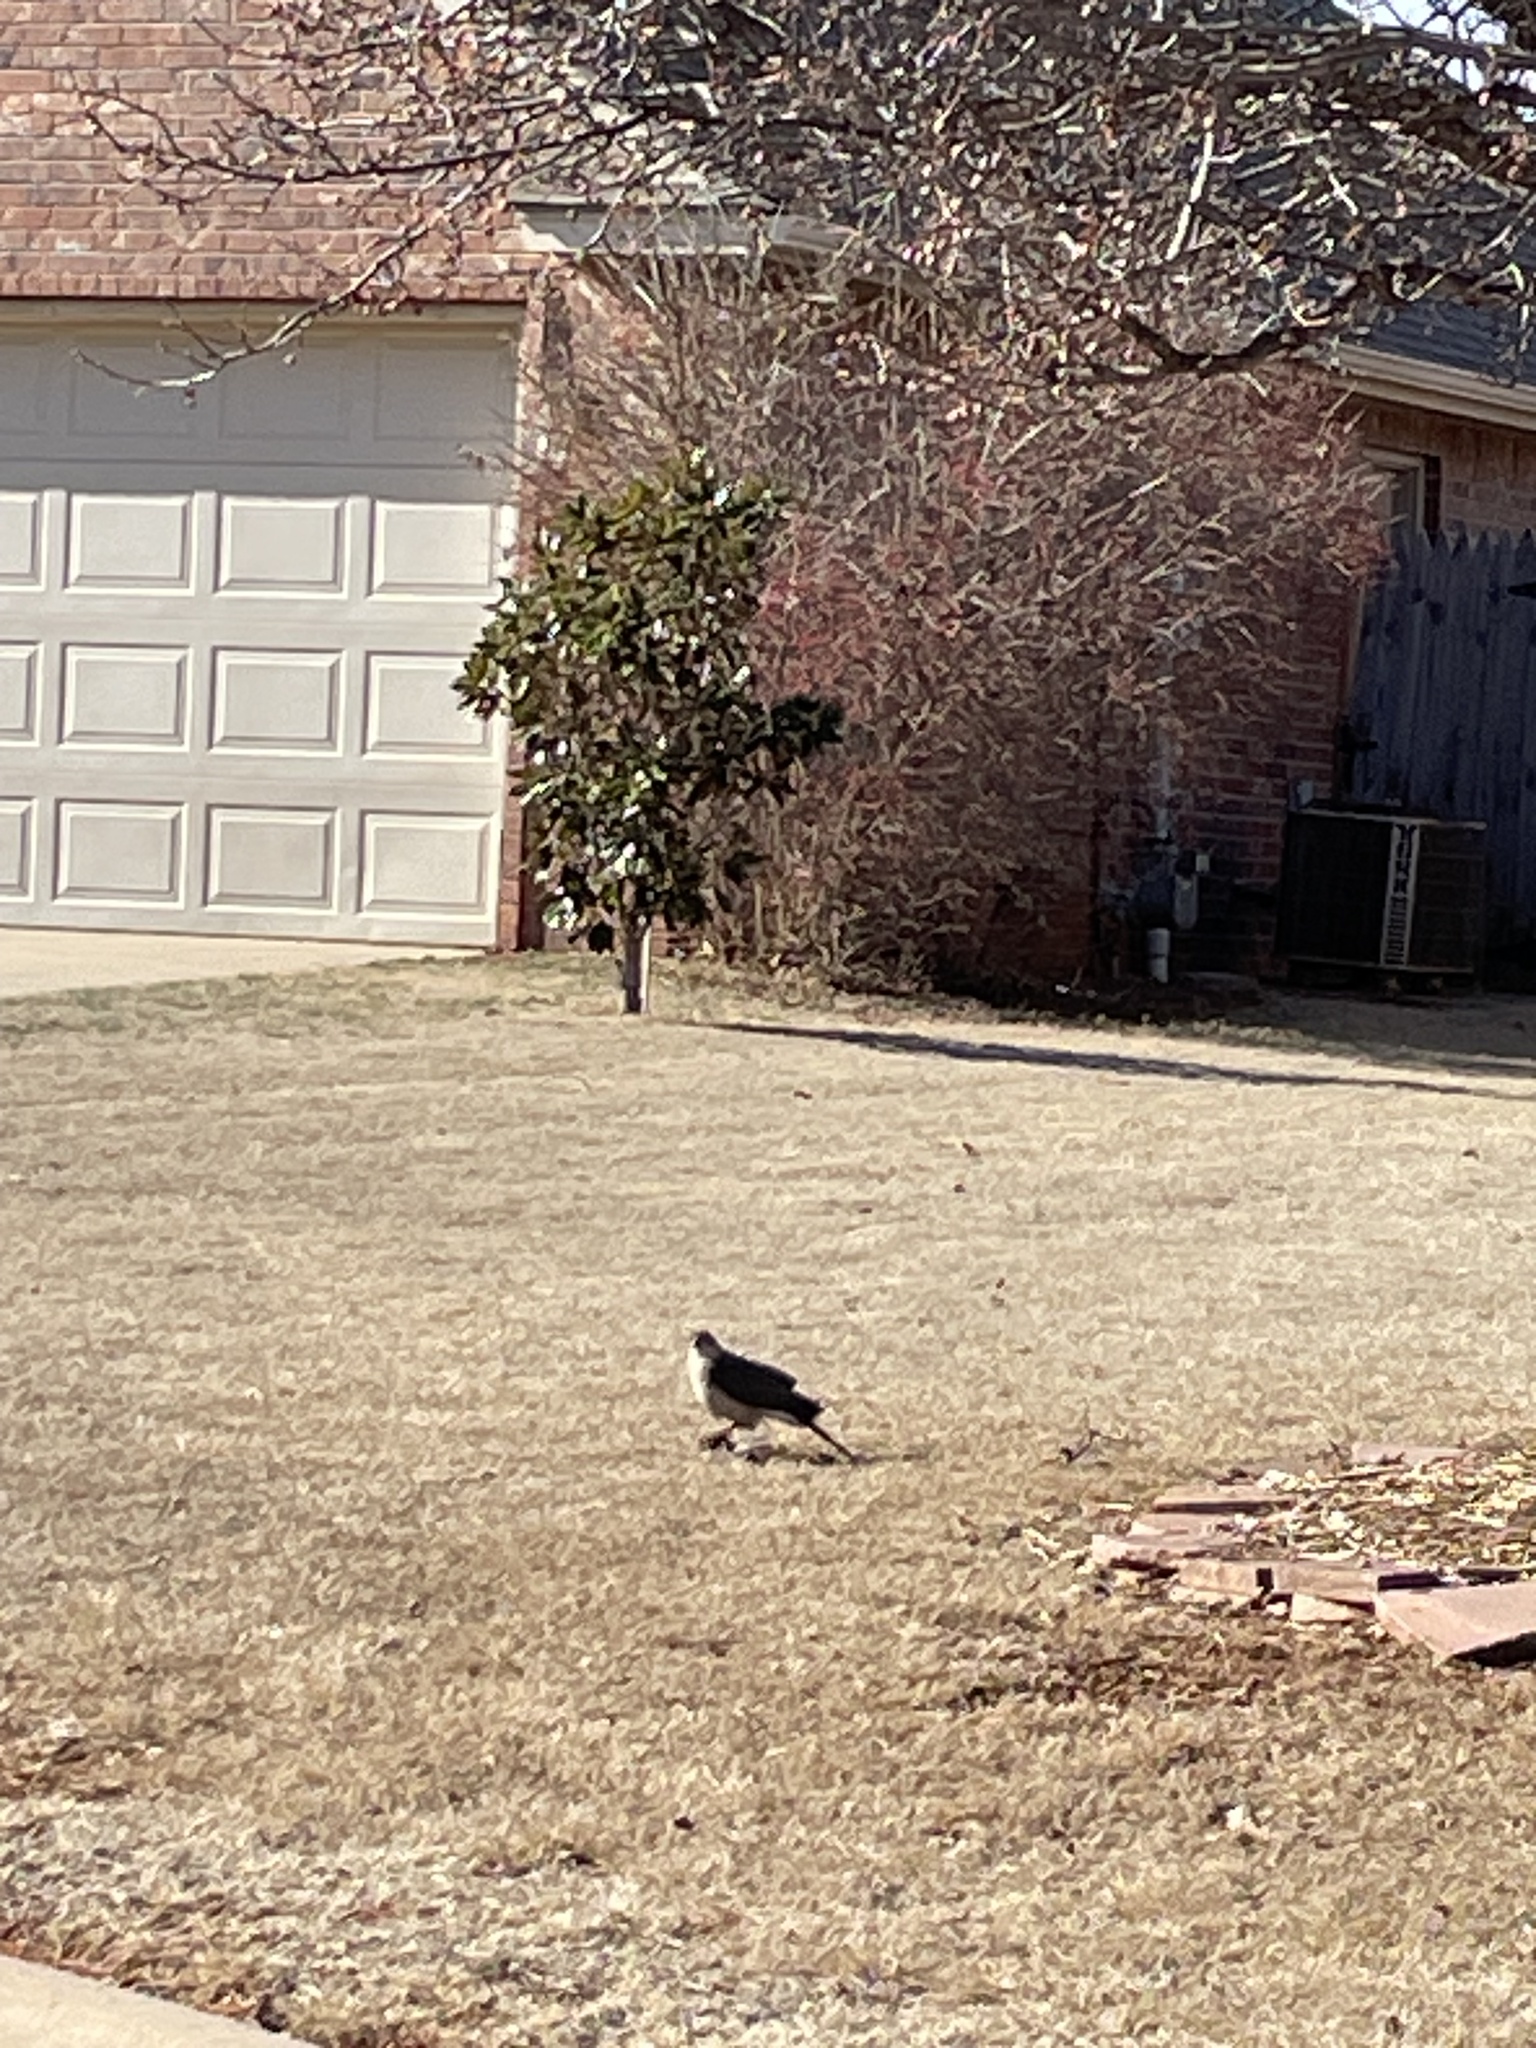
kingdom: Animalia
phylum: Chordata
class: Aves
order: Accipitriformes
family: Accipitridae
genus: Accipiter
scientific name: Accipiter cooperii
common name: Cooper's hawk
